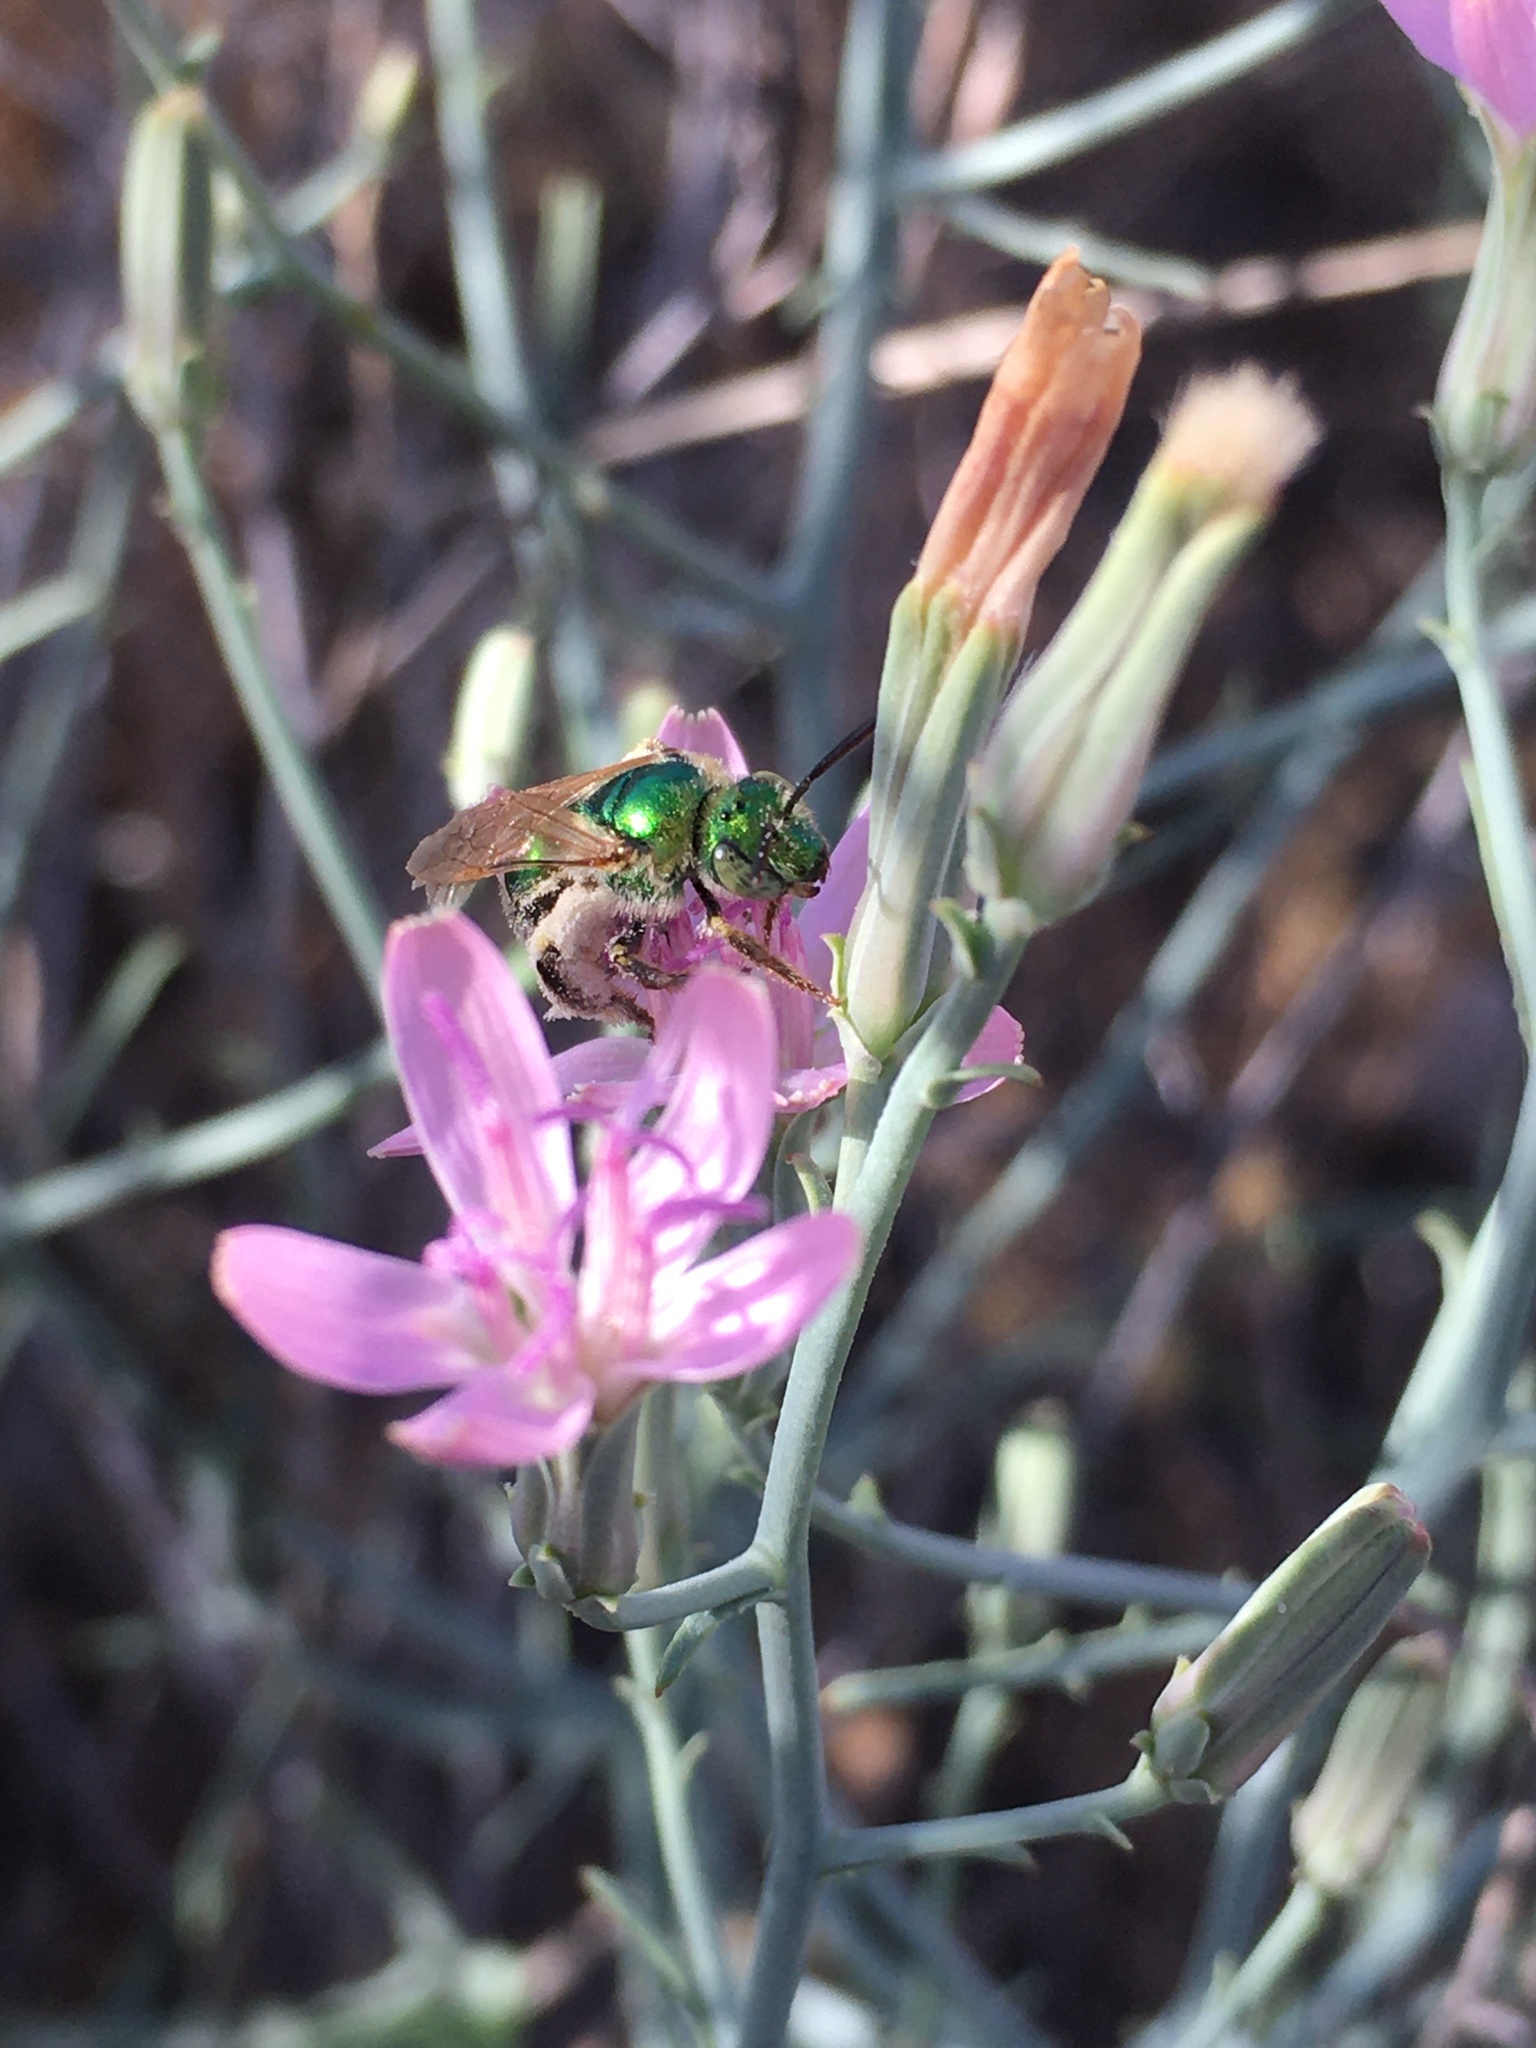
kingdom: Animalia
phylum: Arthropoda
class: Insecta
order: Hymenoptera
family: Halictidae
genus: Agapostemon
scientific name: Agapostemon
